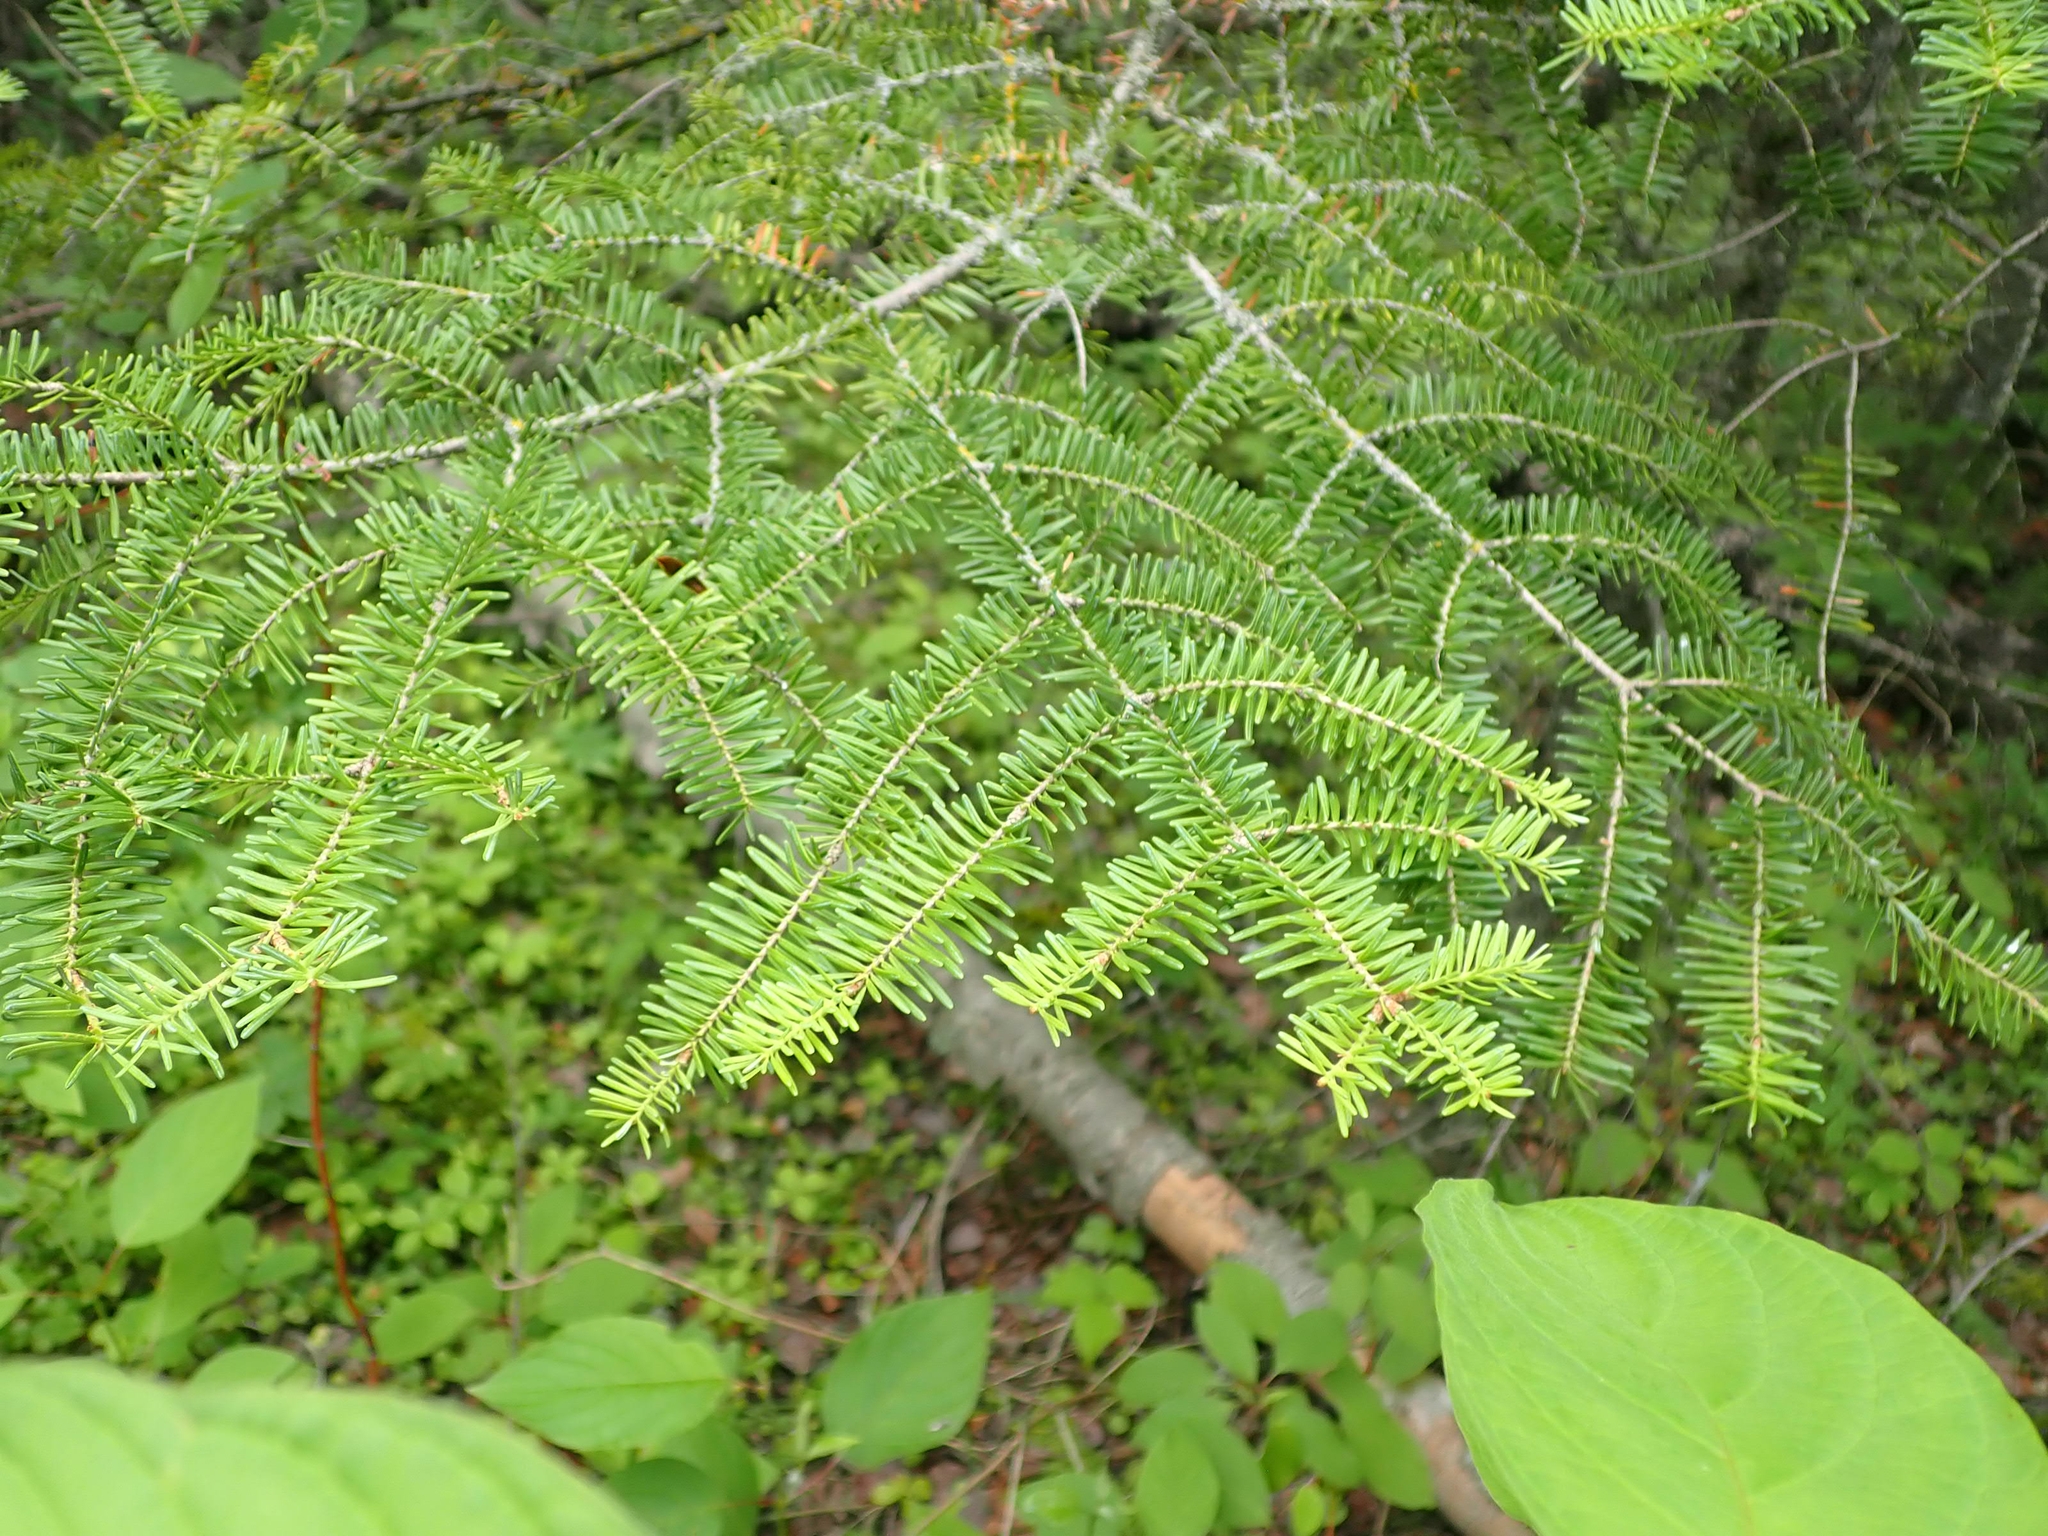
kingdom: Plantae
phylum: Tracheophyta
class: Pinopsida
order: Pinales
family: Pinaceae
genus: Abies
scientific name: Abies balsamea
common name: Balsam fir
